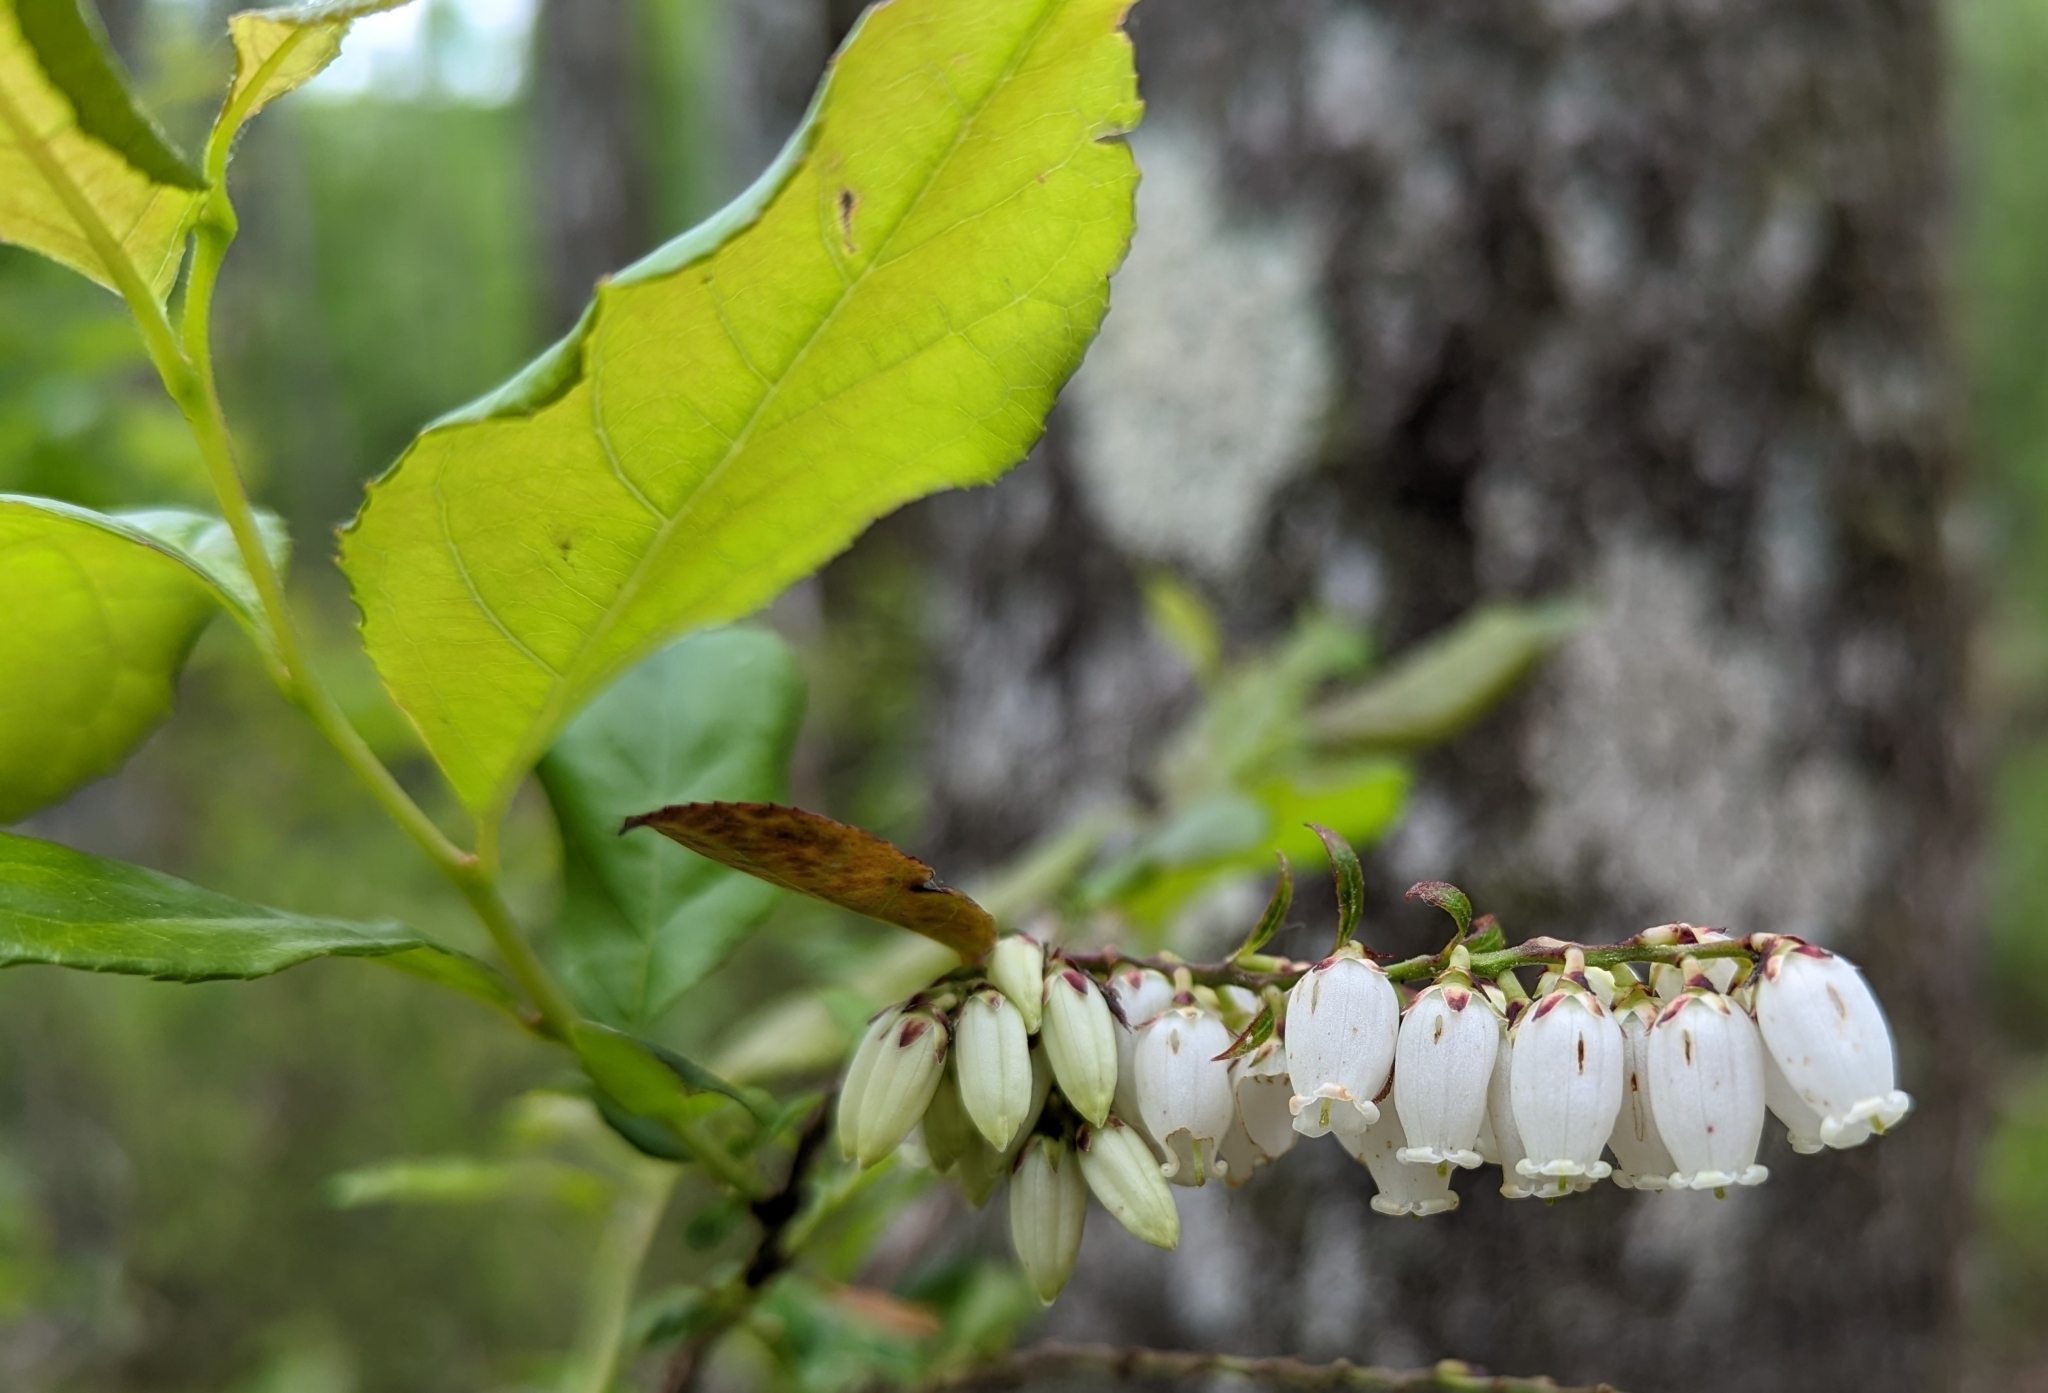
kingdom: Plantae
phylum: Tracheophyta
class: Magnoliopsida
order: Ericales
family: Ericaceae
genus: Eubotrys
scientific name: Eubotrys racemosa
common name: Fetterbush
